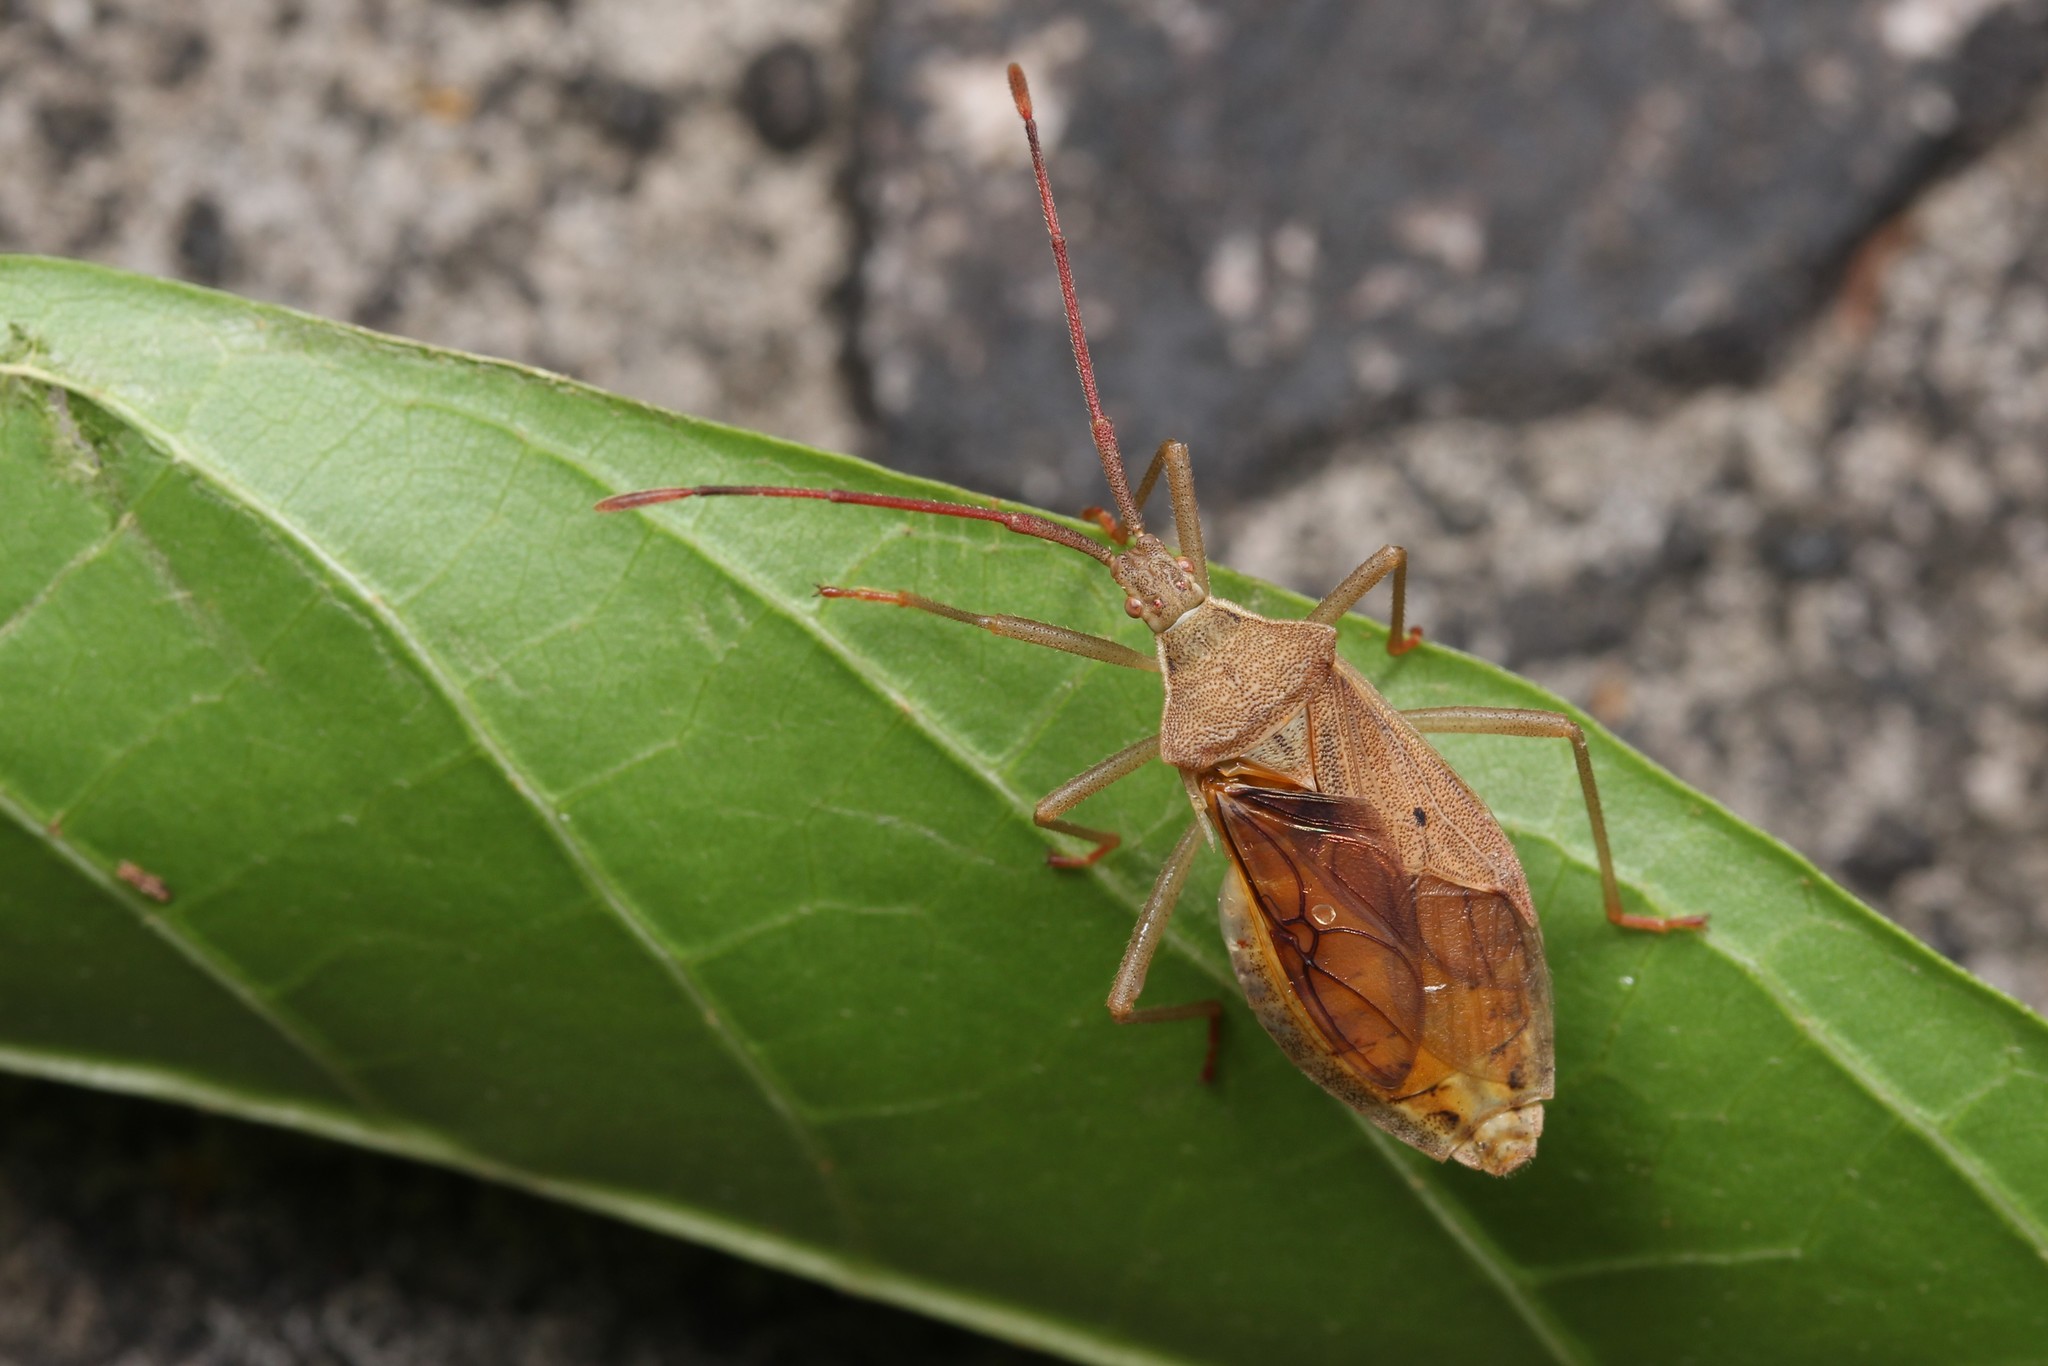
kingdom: Animalia
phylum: Arthropoda
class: Insecta
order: Hemiptera
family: Coreidae
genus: Homoeocerus
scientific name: Homoeocerus unipunctatus
